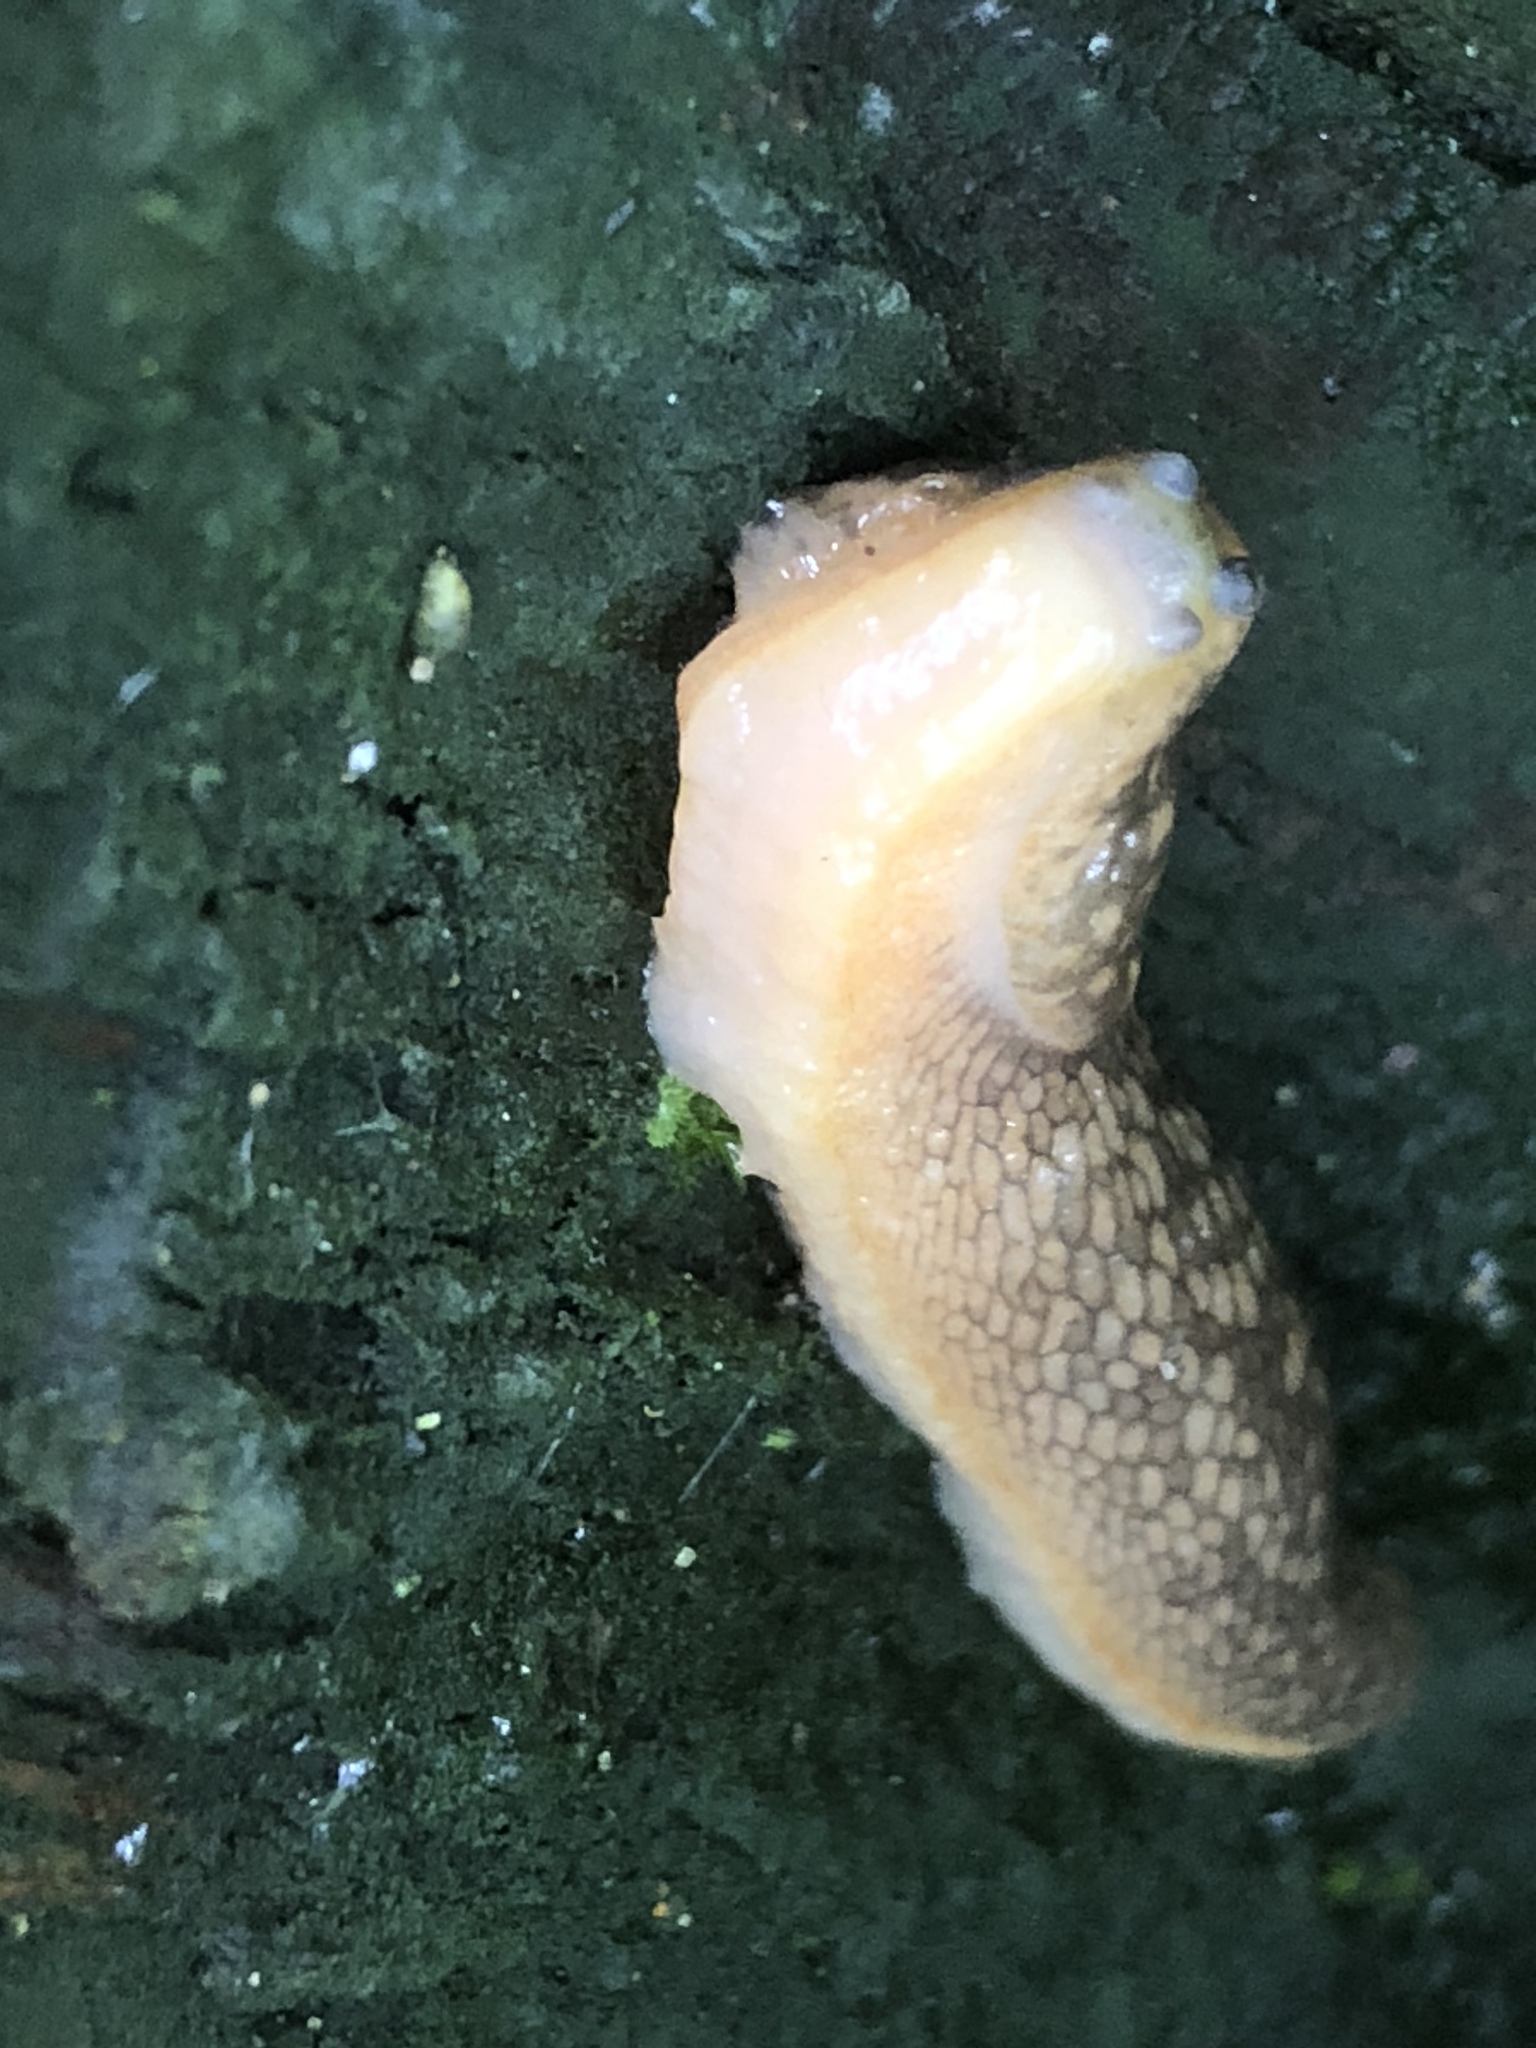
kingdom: Animalia
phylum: Mollusca
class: Gastropoda
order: Stylommatophora
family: Limacidae
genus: Limacus
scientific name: Limacus flavus
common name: Yellow gardenslug
